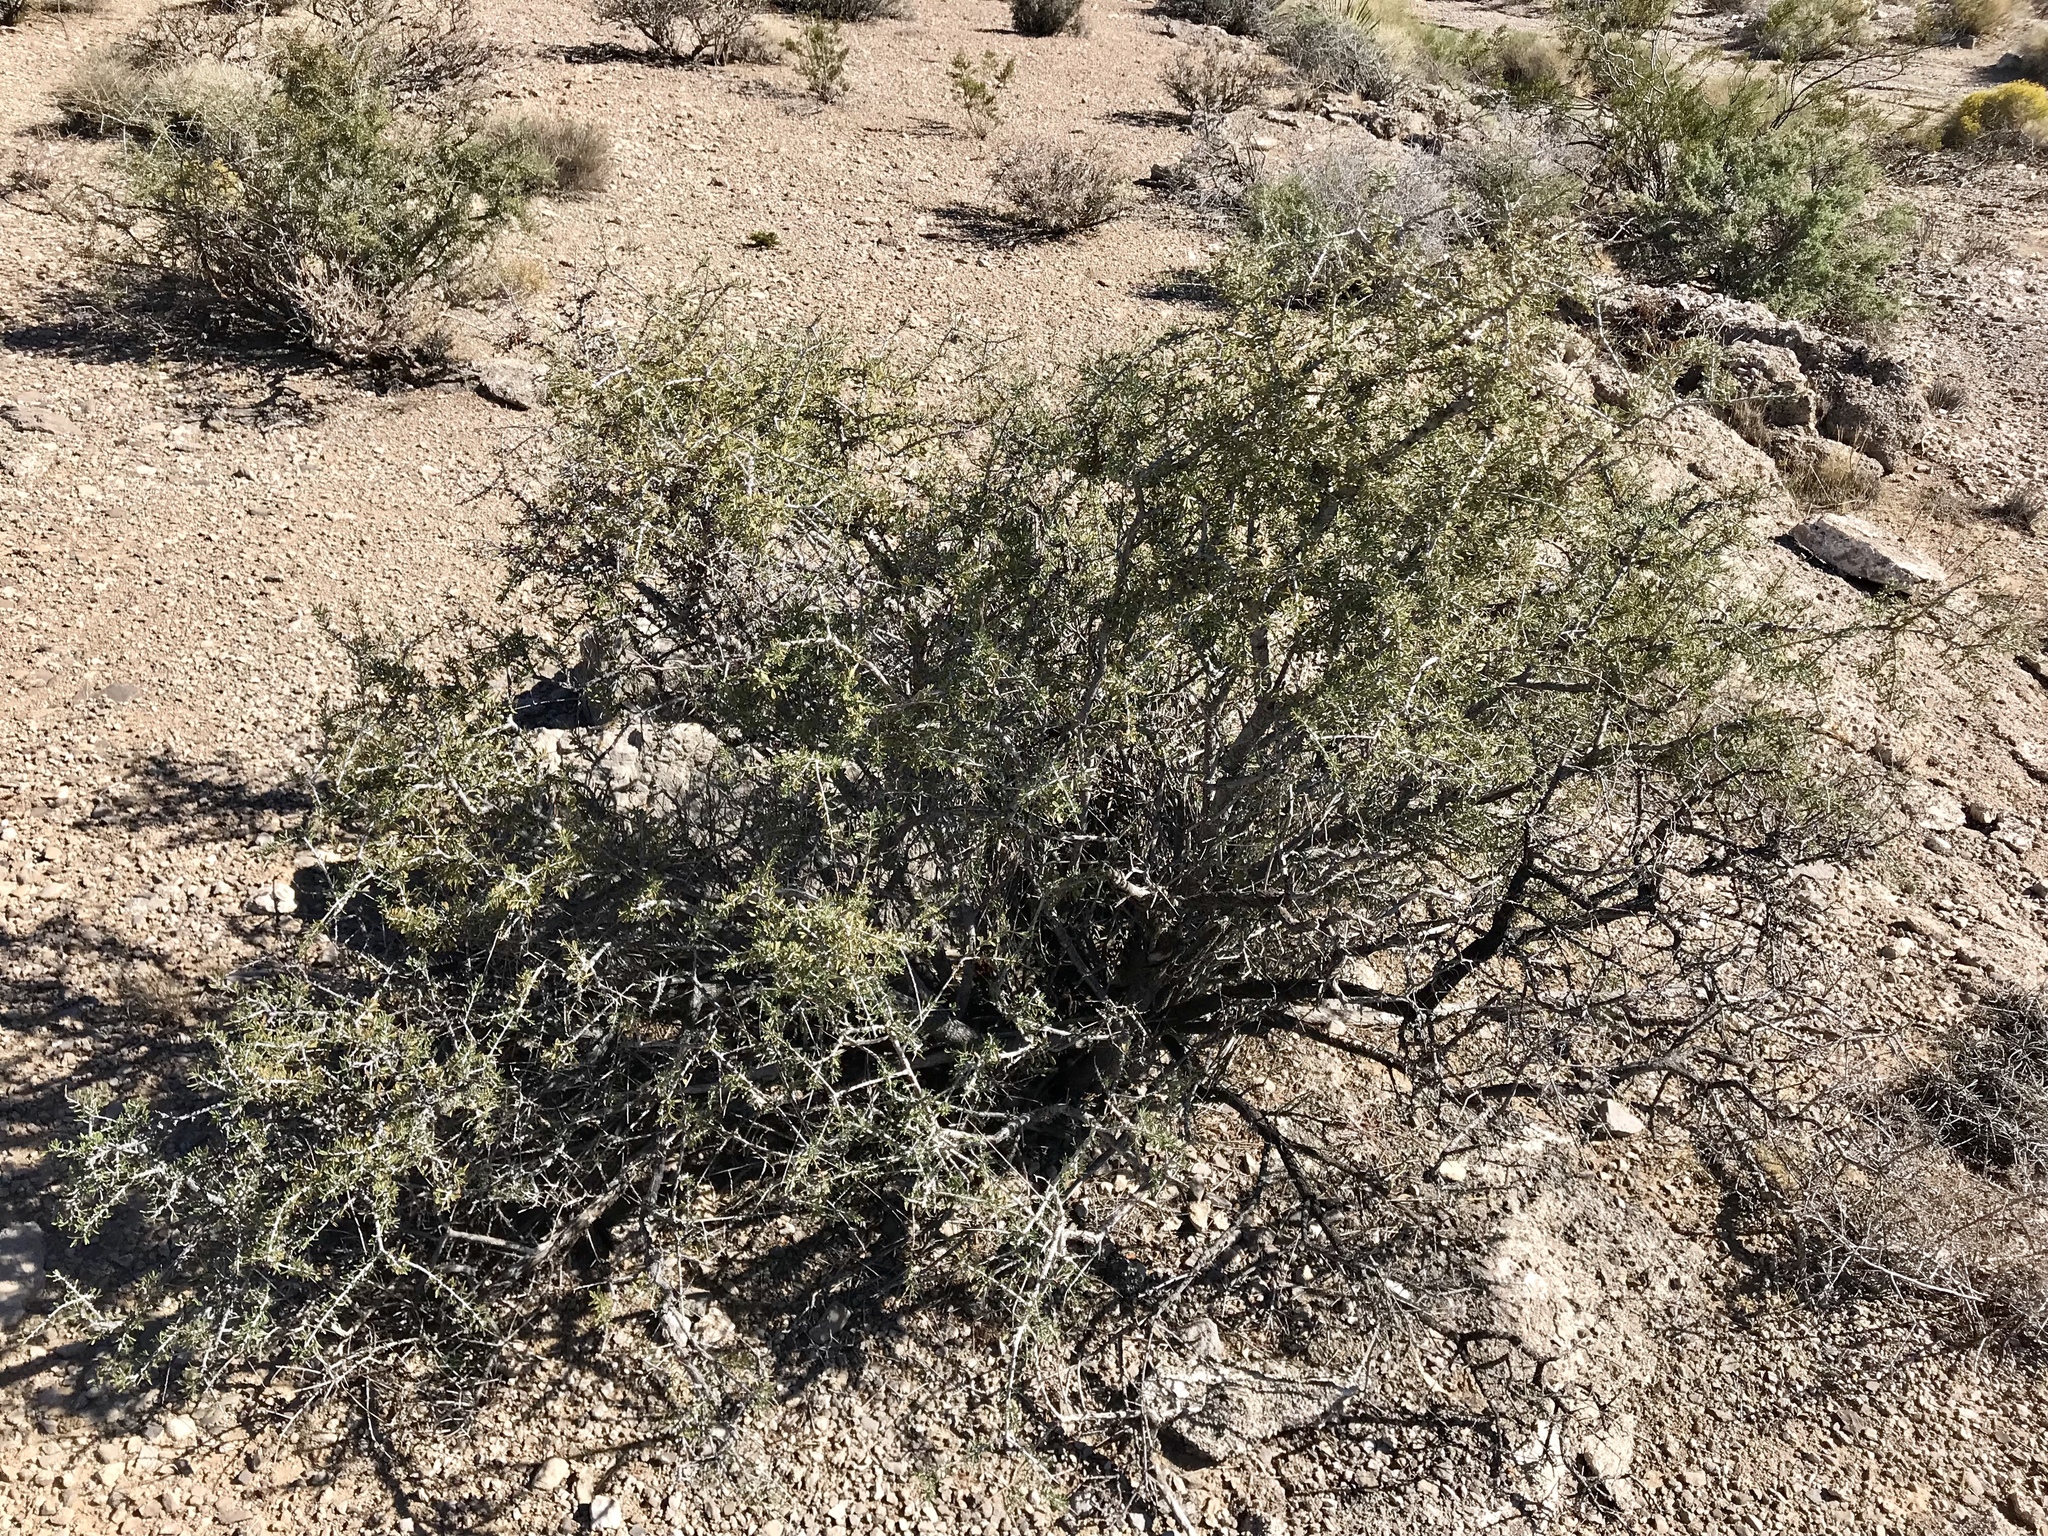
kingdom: Plantae
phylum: Tracheophyta
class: Magnoliopsida
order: Rosales
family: Rosaceae
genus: Prunus
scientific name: Prunus fasciculata
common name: Desert almond
